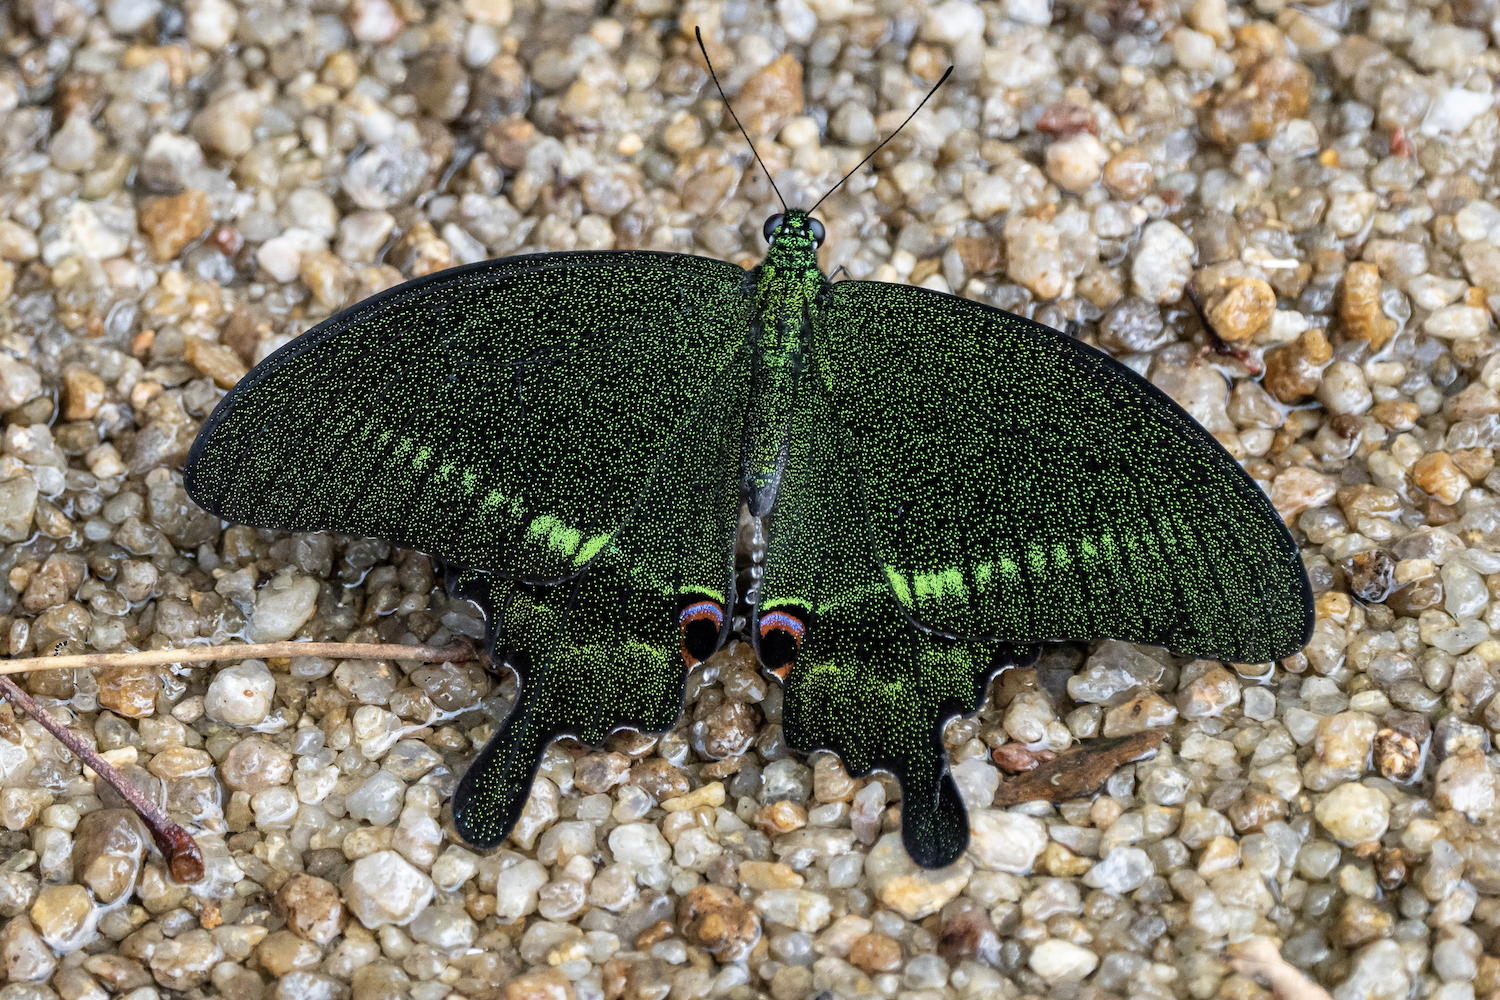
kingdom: Animalia
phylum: Arthropoda
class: Insecta
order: Lepidoptera
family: Papilionidae
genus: Papilio
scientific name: Papilio paris
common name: Paris peacock
